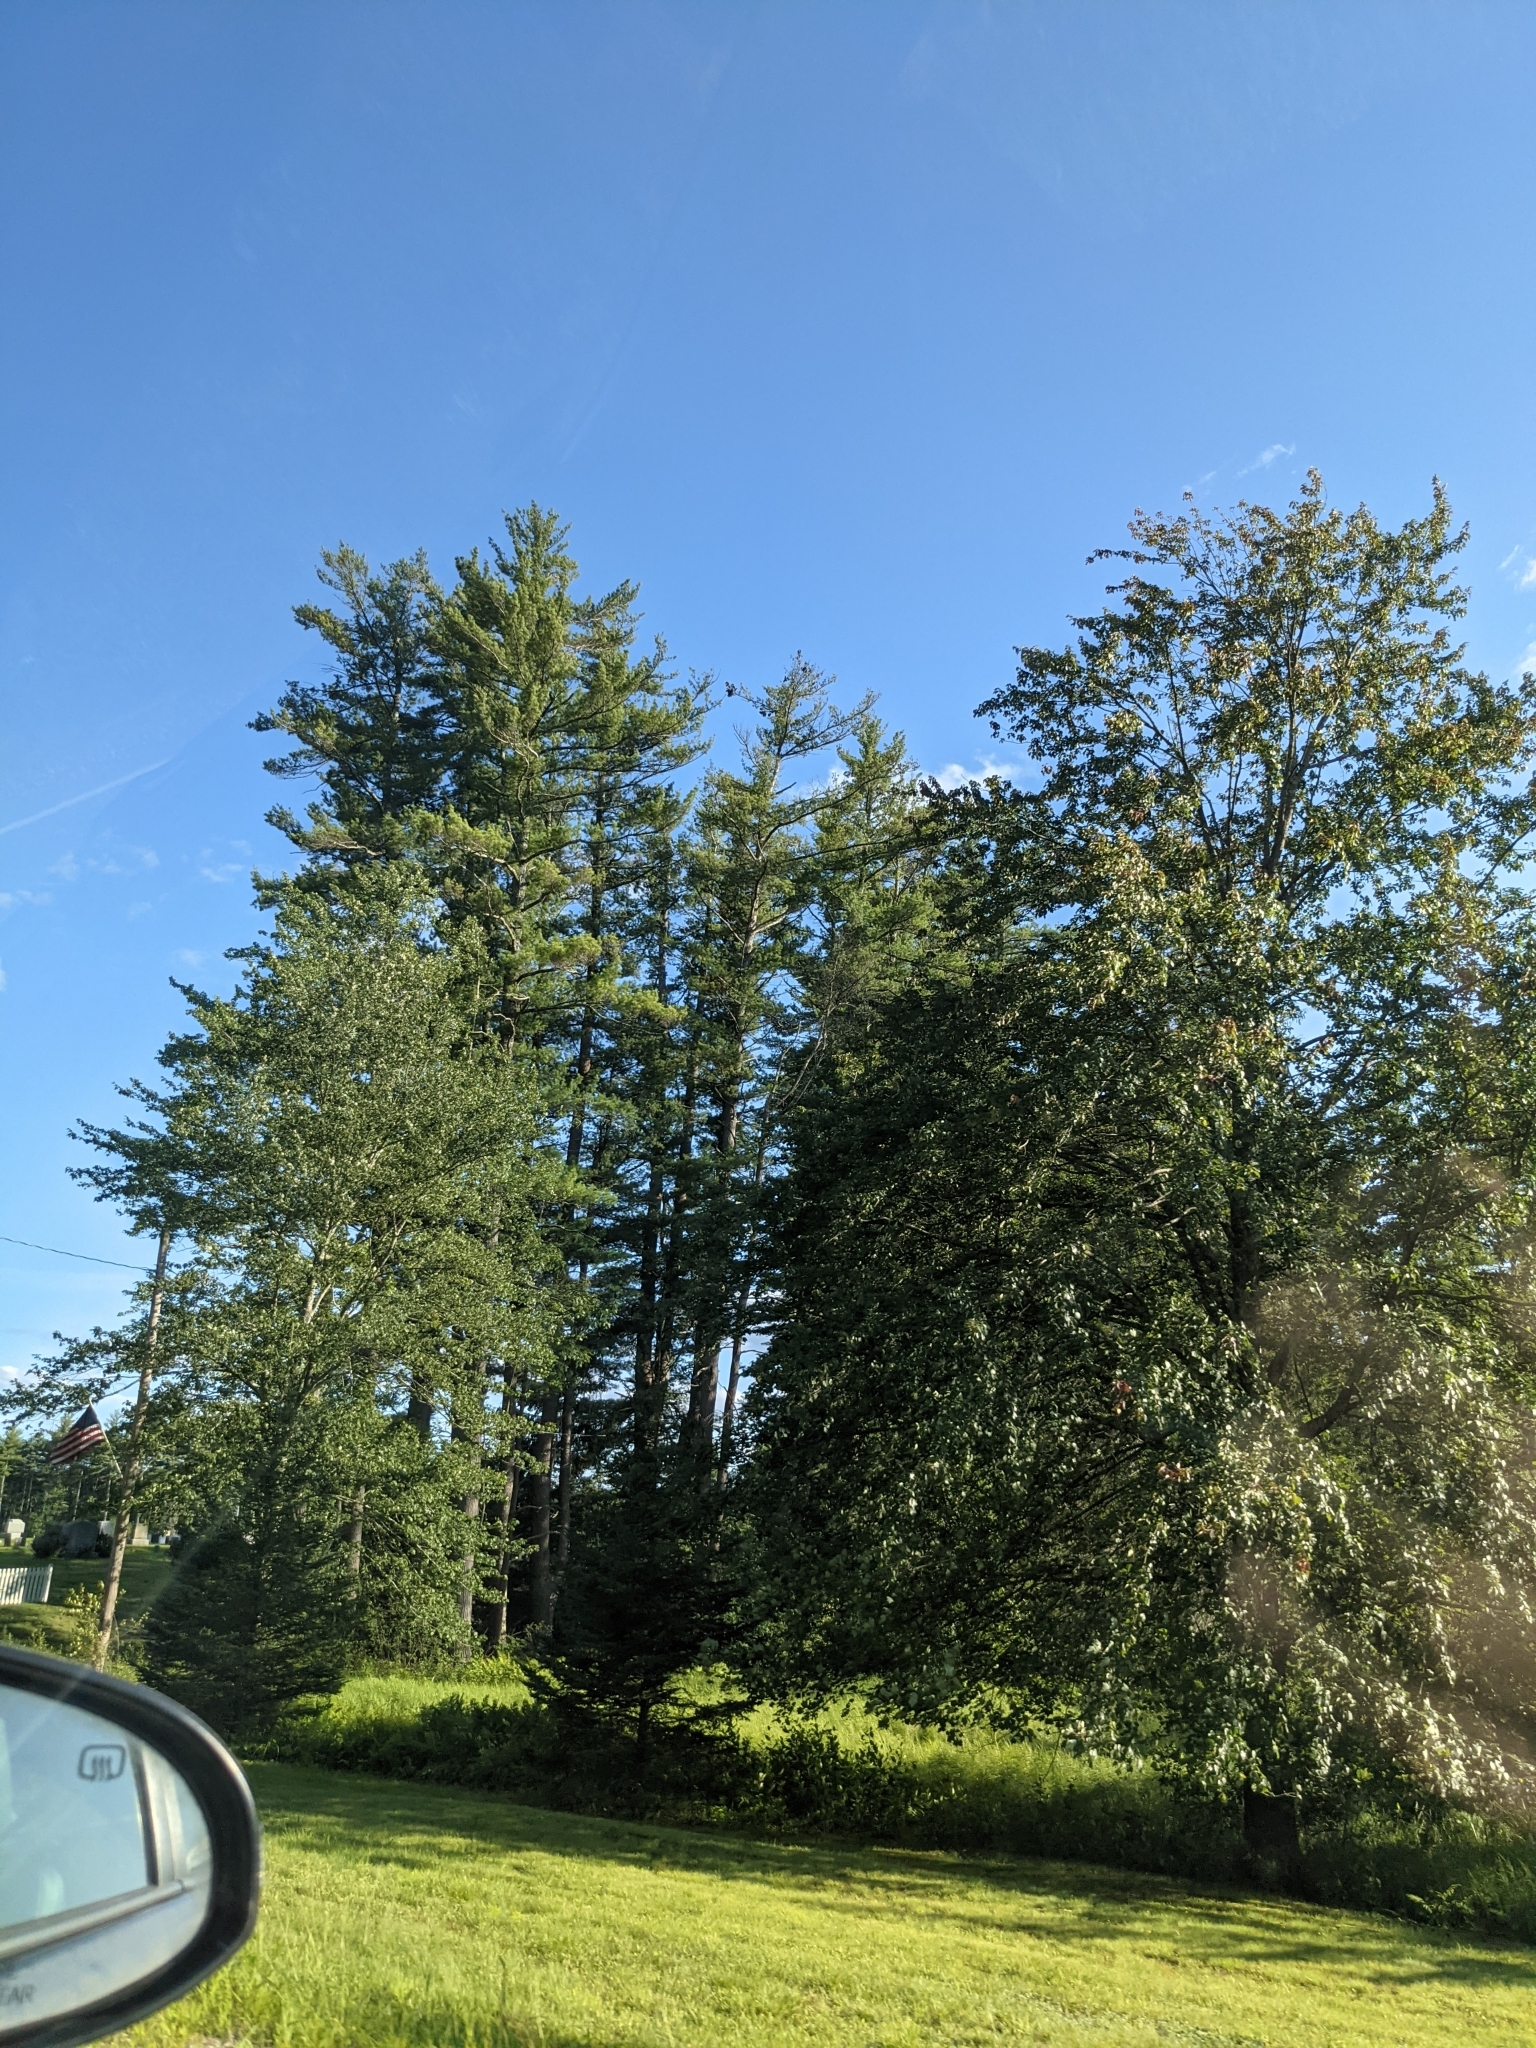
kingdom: Plantae
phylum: Tracheophyta
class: Pinopsida
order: Pinales
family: Pinaceae
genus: Pinus
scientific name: Pinus strobus
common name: Weymouth pine
